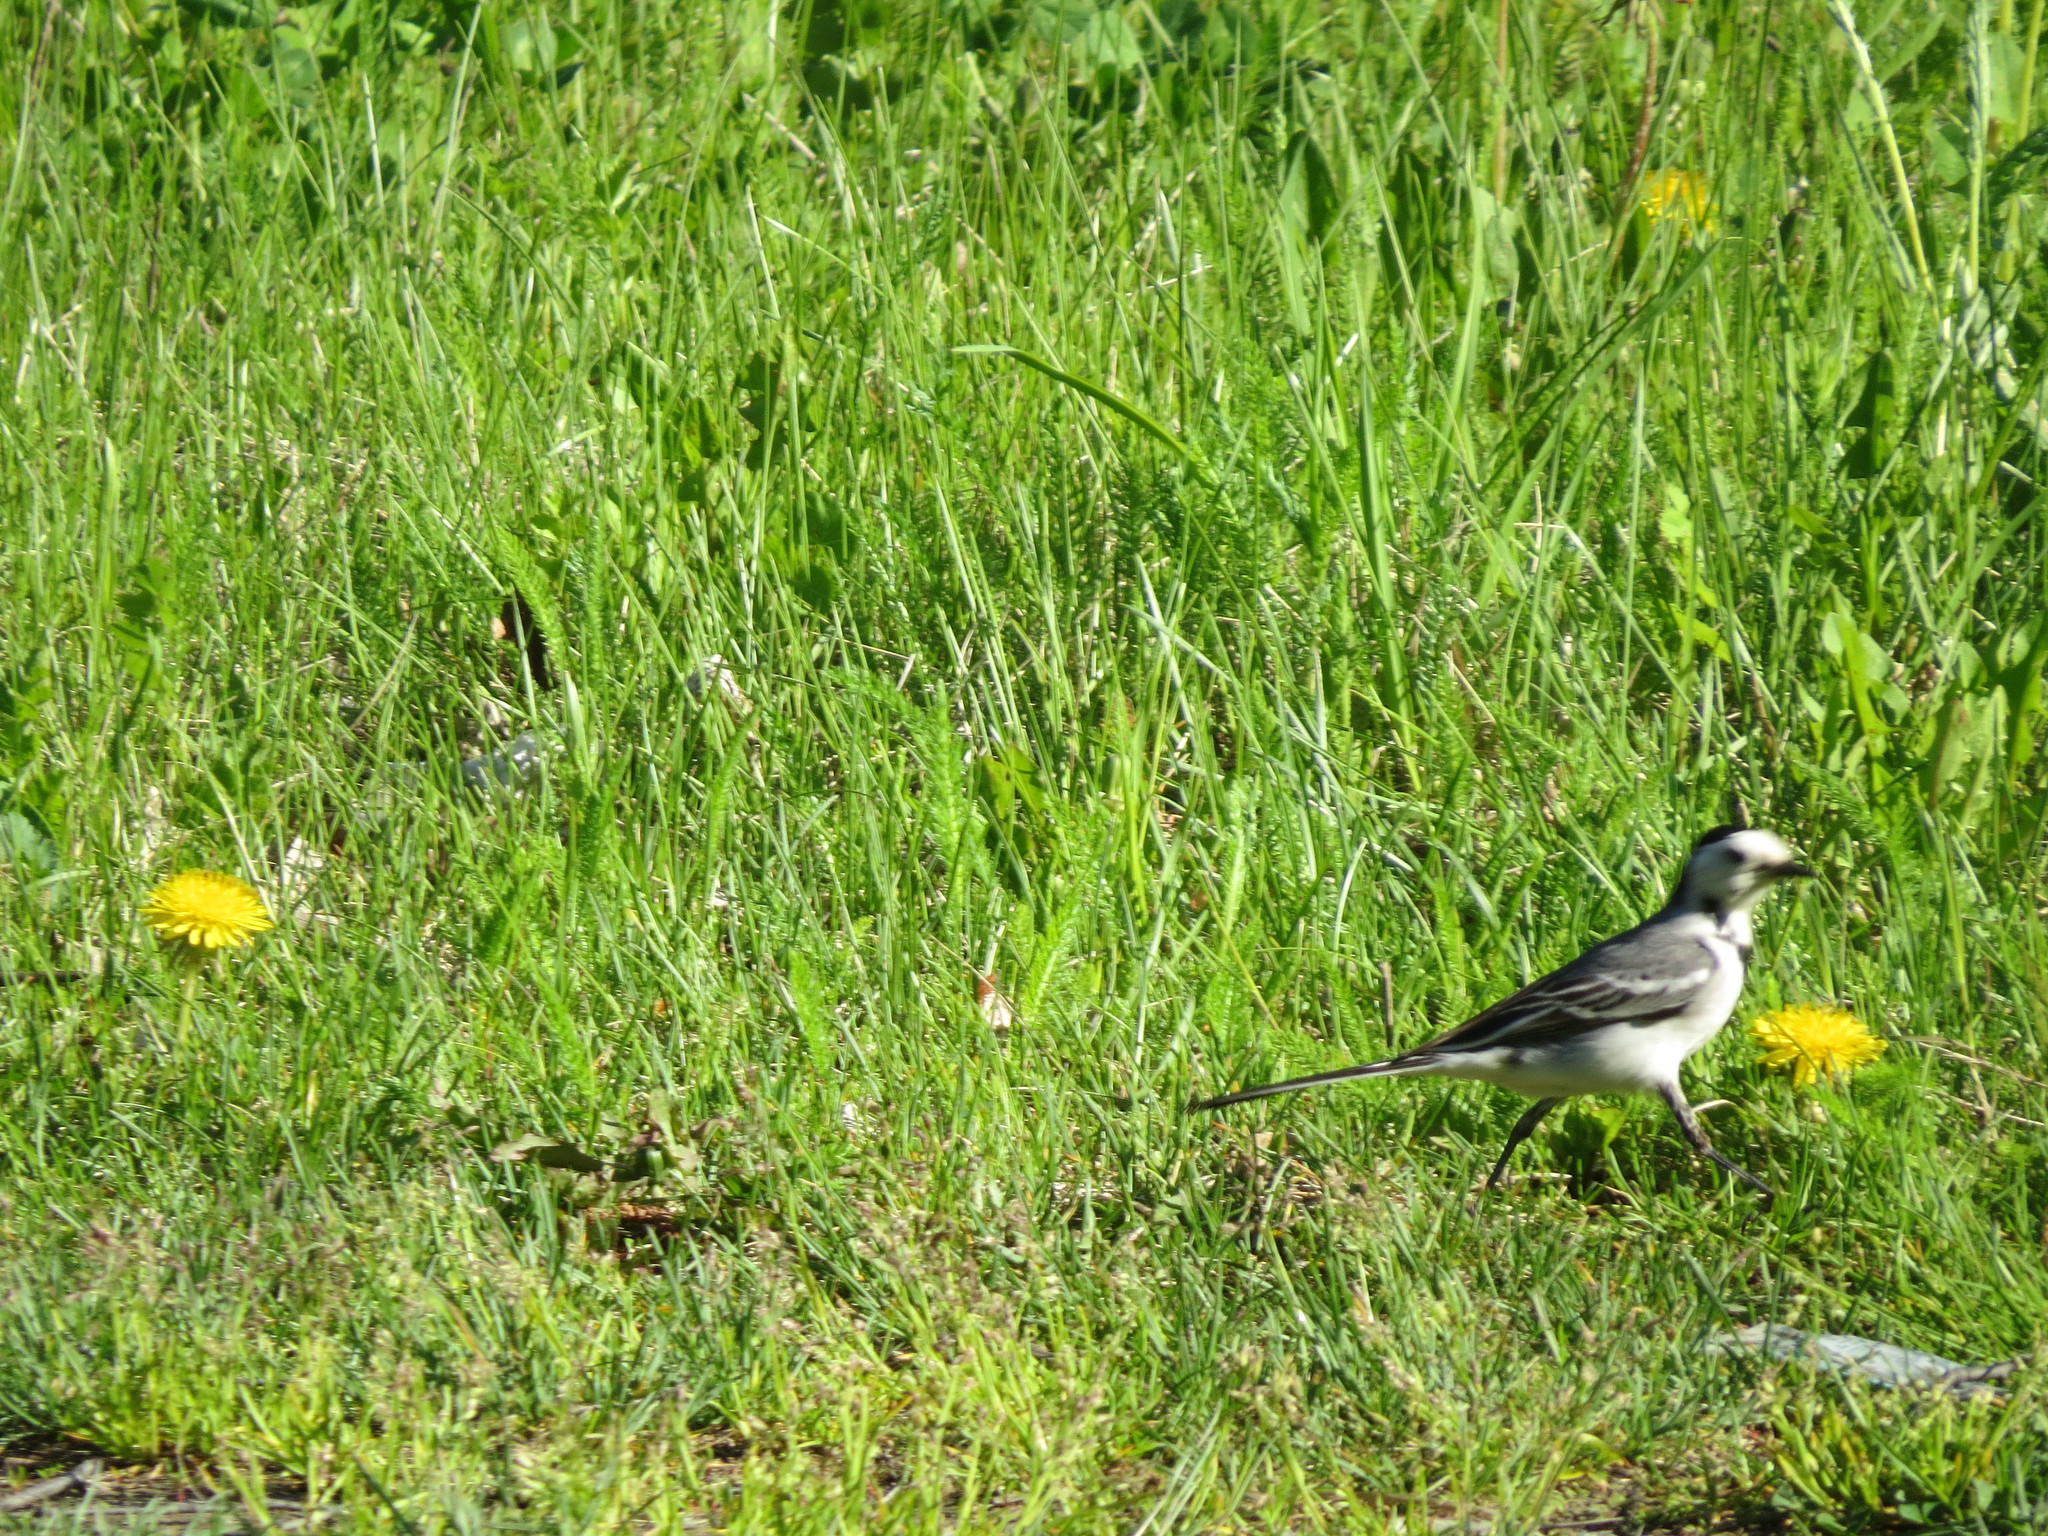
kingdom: Animalia
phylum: Chordata
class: Aves
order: Passeriformes
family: Motacillidae
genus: Motacilla
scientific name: Motacilla alba
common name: White wagtail
